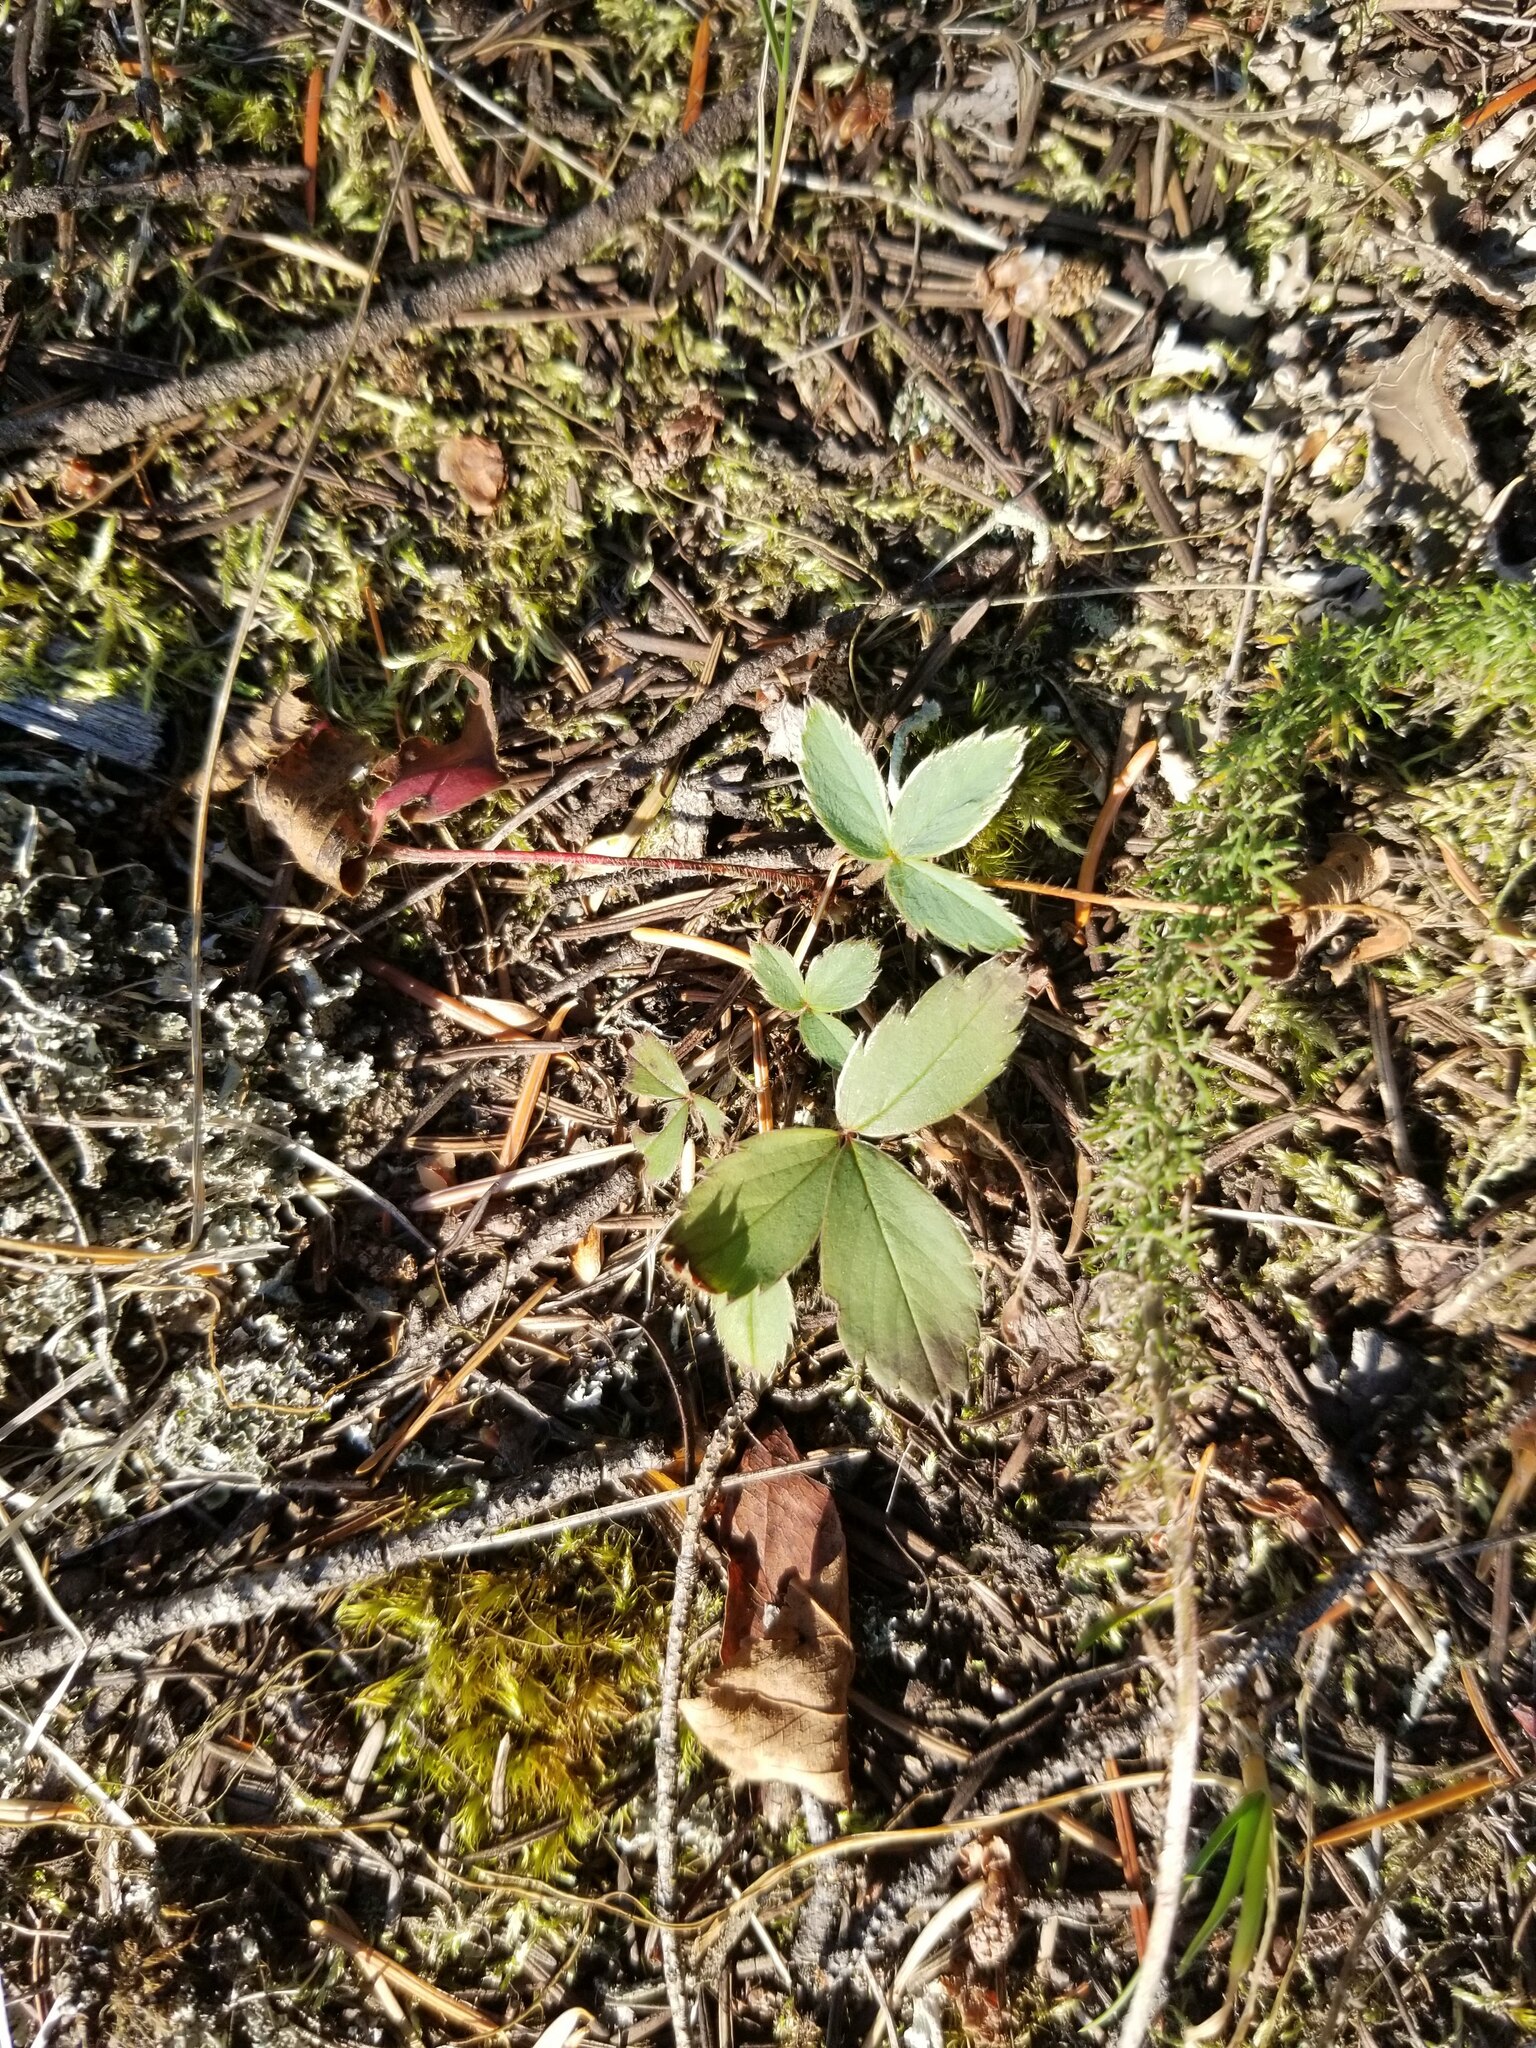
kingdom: Plantae
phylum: Tracheophyta
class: Magnoliopsida
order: Rosales
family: Rosaceae
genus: Fragaria
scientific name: Fragaria virginiana
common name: Thickleaved wild strawberry
